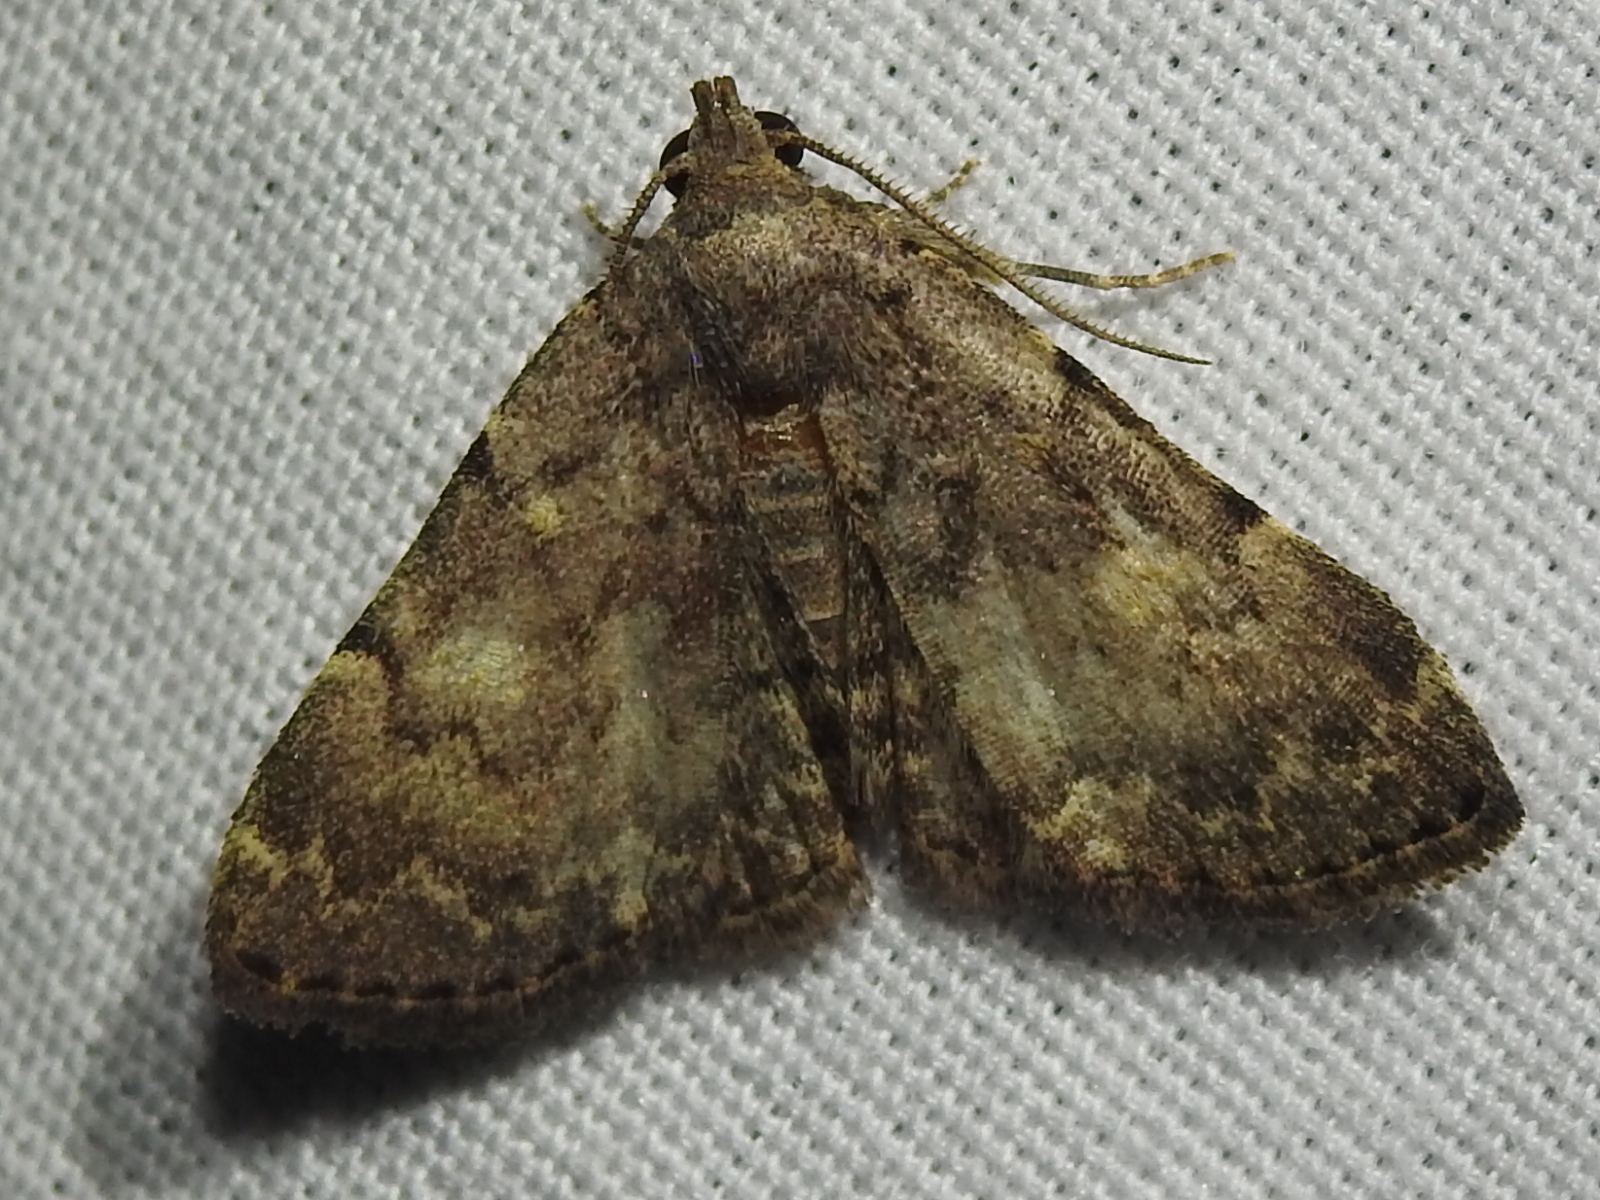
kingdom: Animalia
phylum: Arthropoda
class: Insecta
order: Lepidoptera
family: Erebidae
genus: Idia
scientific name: Idia aemula
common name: Common idia moth
